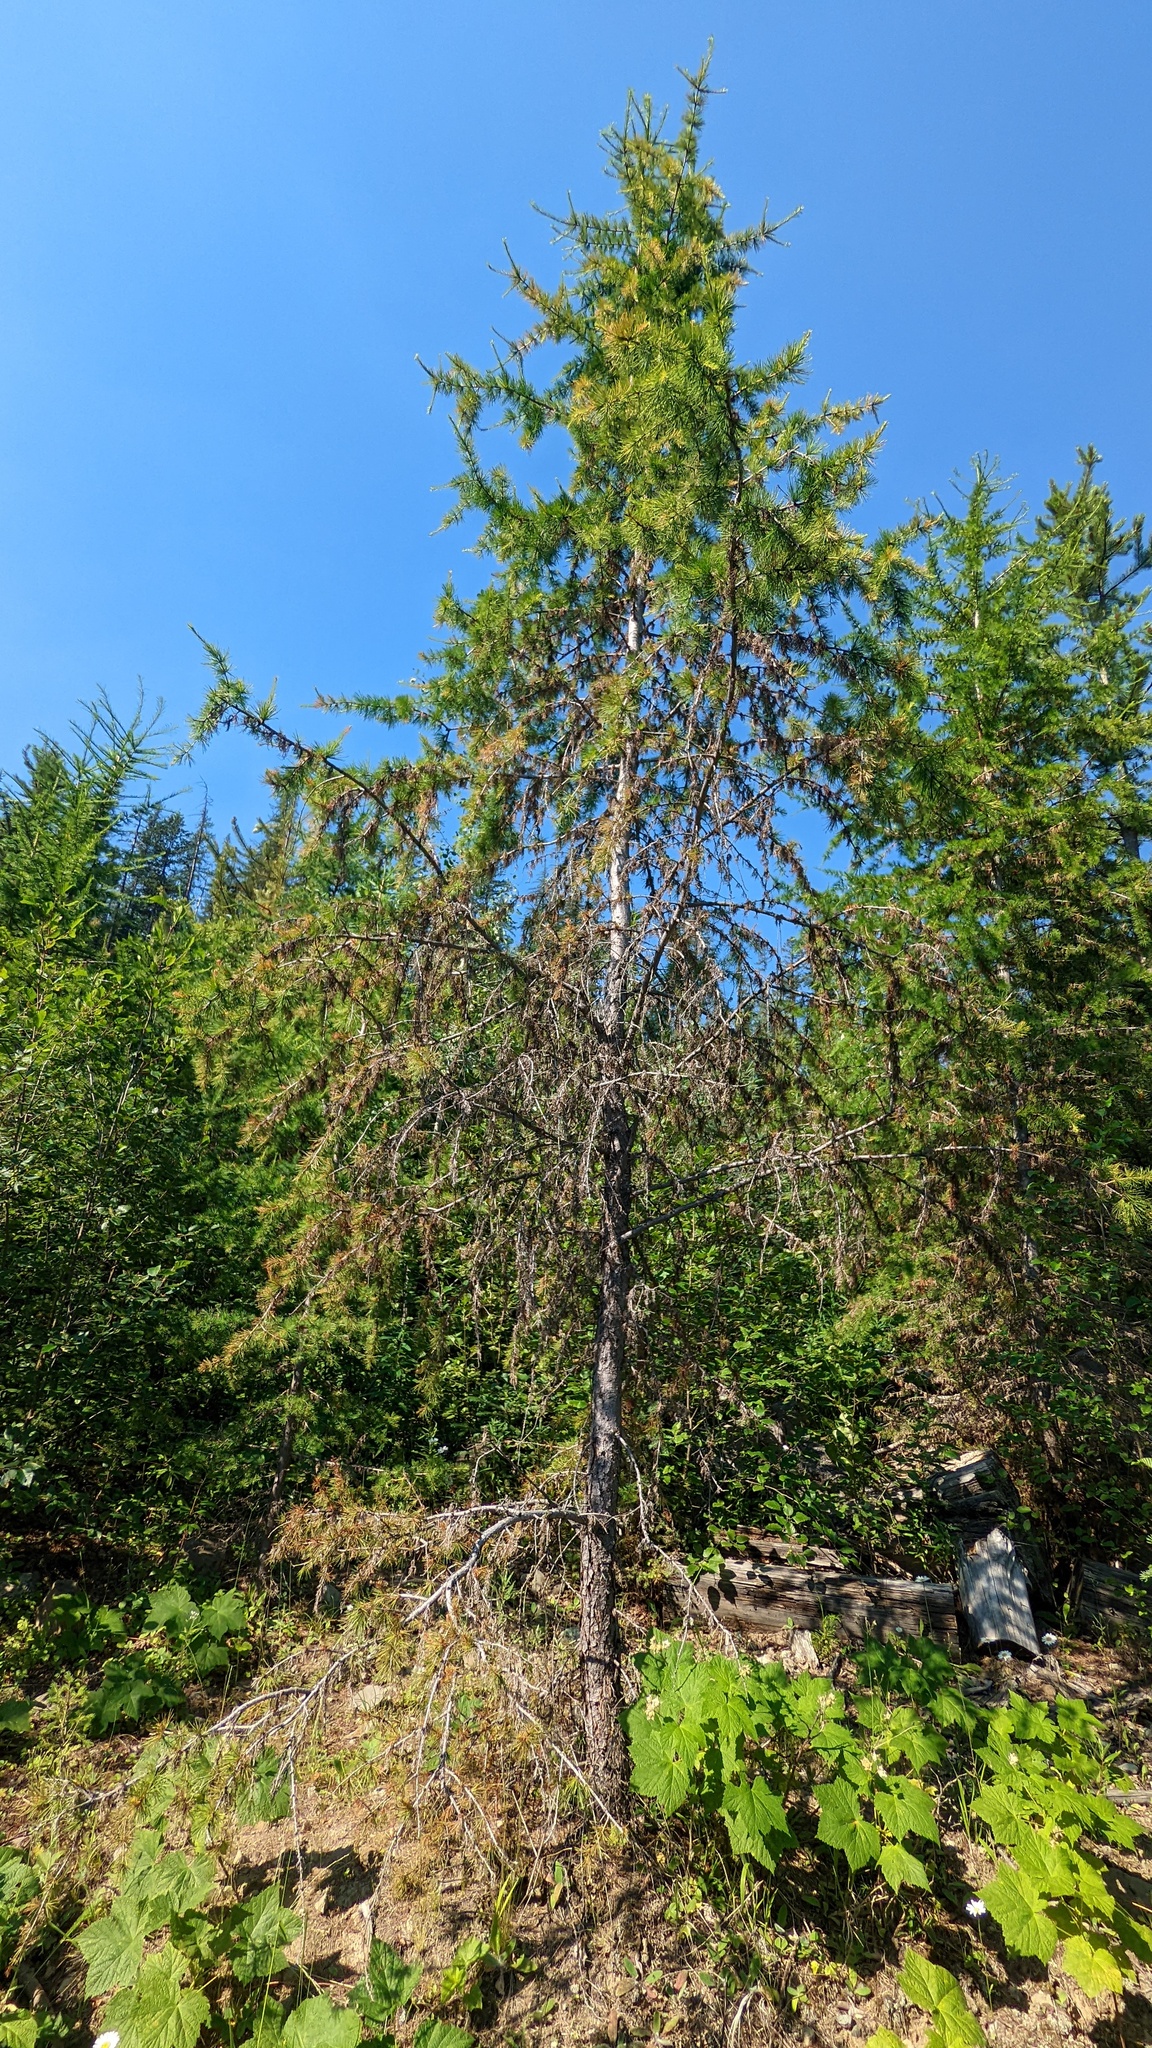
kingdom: Plantae
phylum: Tracheophyta
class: Pinopsida
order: Pinales
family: Pinaceae
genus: Larix
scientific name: Larix occidentalis
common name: Western larch
